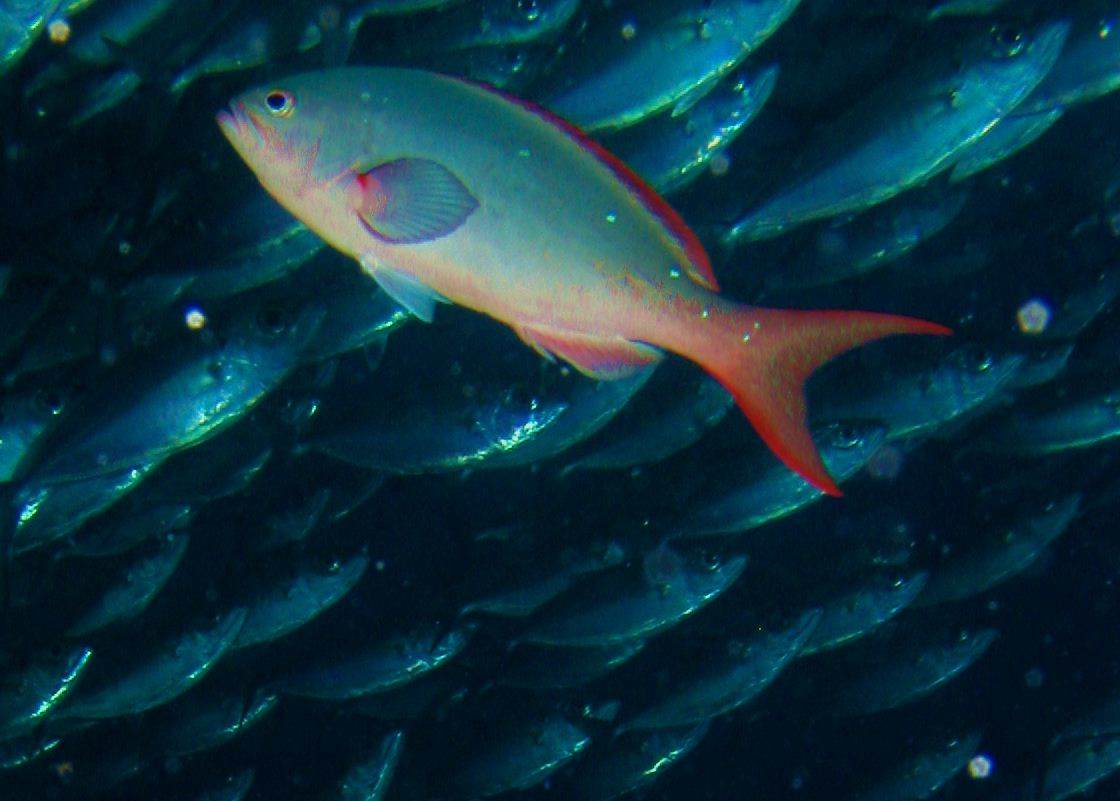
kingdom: Animalia
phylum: Chordata
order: Perciformes
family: Serranidae
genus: Paranthias
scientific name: Paranthias colonus
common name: Pacific creole-fish
